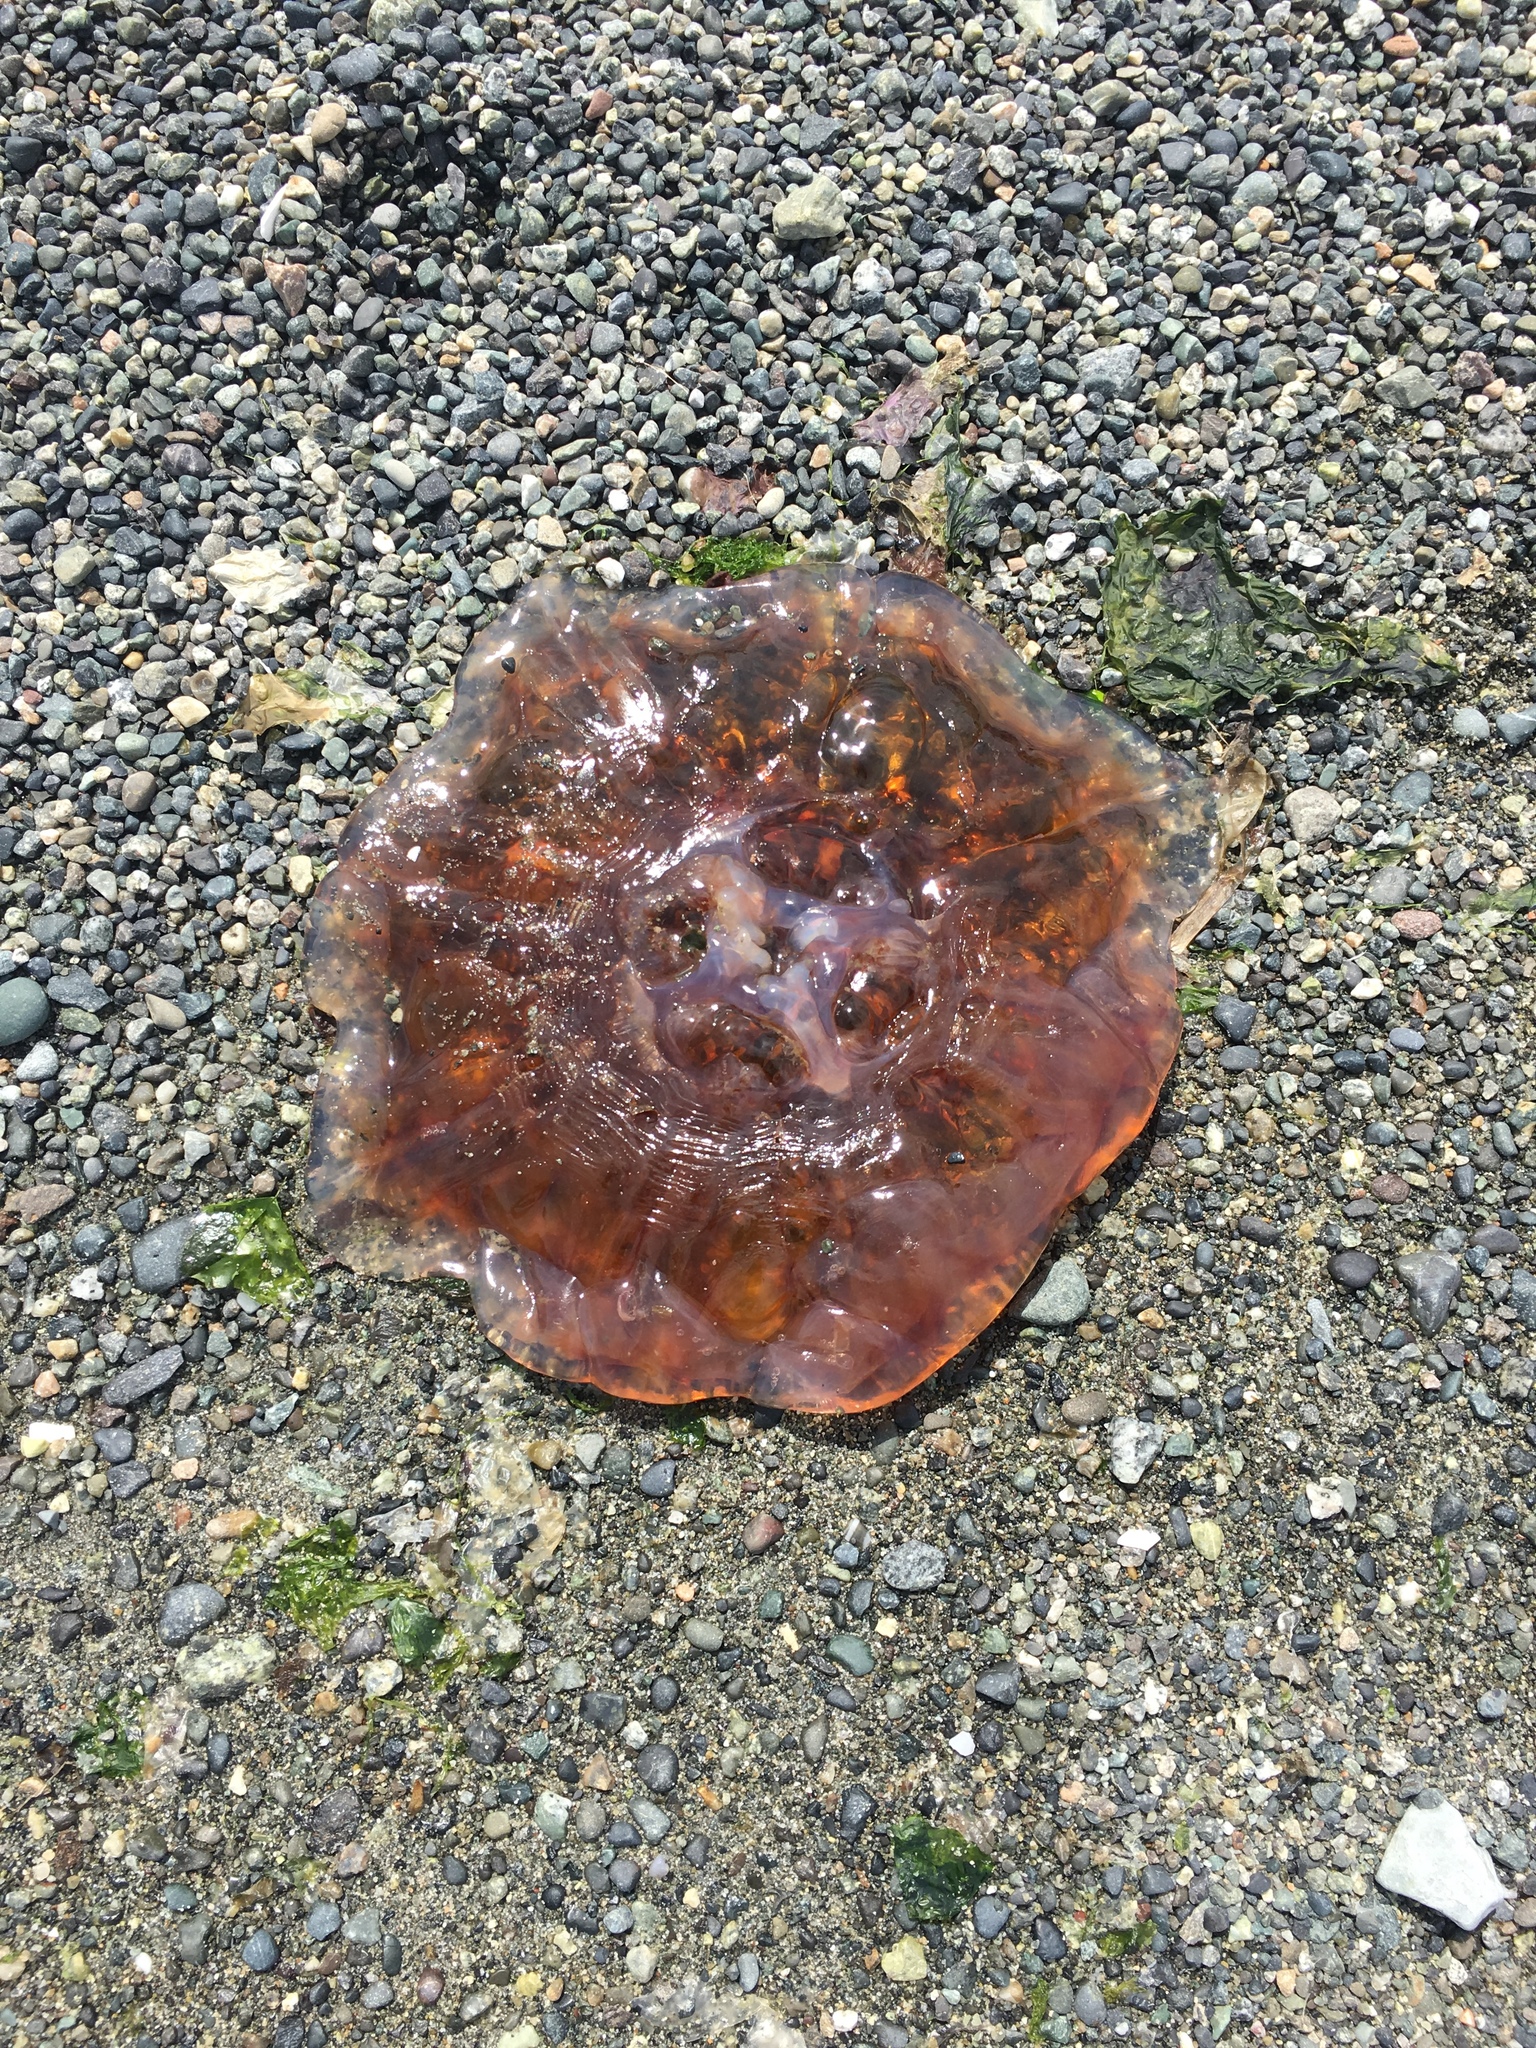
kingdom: Animalia
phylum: Cnidaria
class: Scyphozoa
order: Semaeostomeae
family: Cyaneidae
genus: Cyanea
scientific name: Cyanea ferruginea
